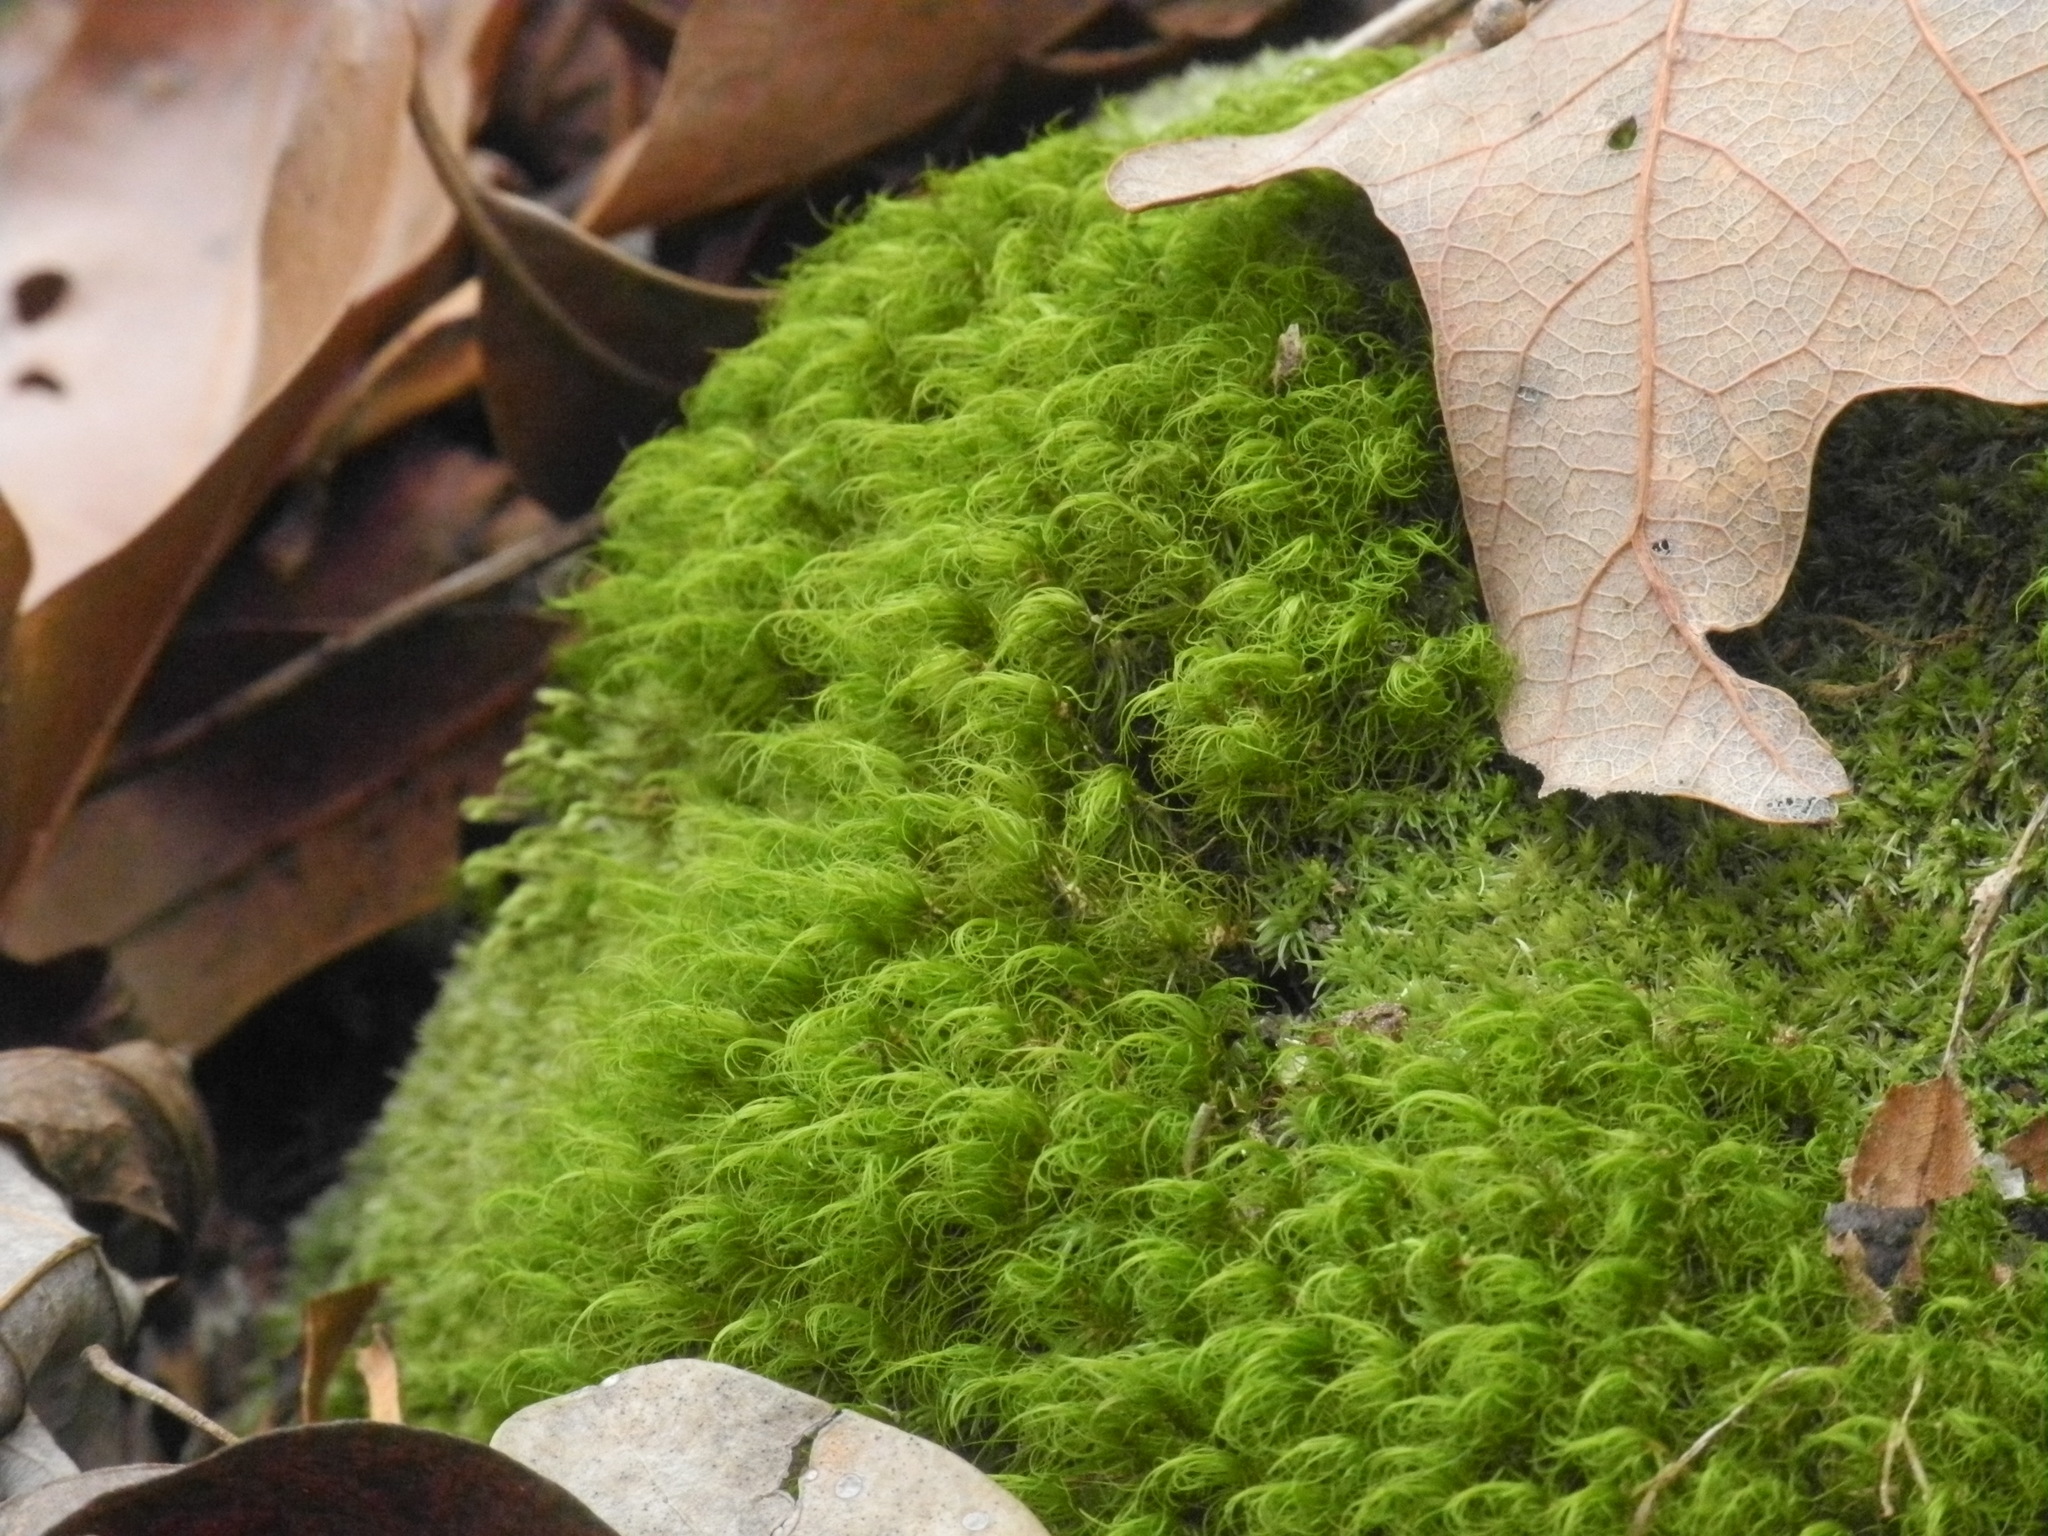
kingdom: Plantae
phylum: Bryophyta
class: Bryopsida
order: Bartramiales
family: Bartramiaceae
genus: Bartramia
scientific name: Bartramia ithyphylla
